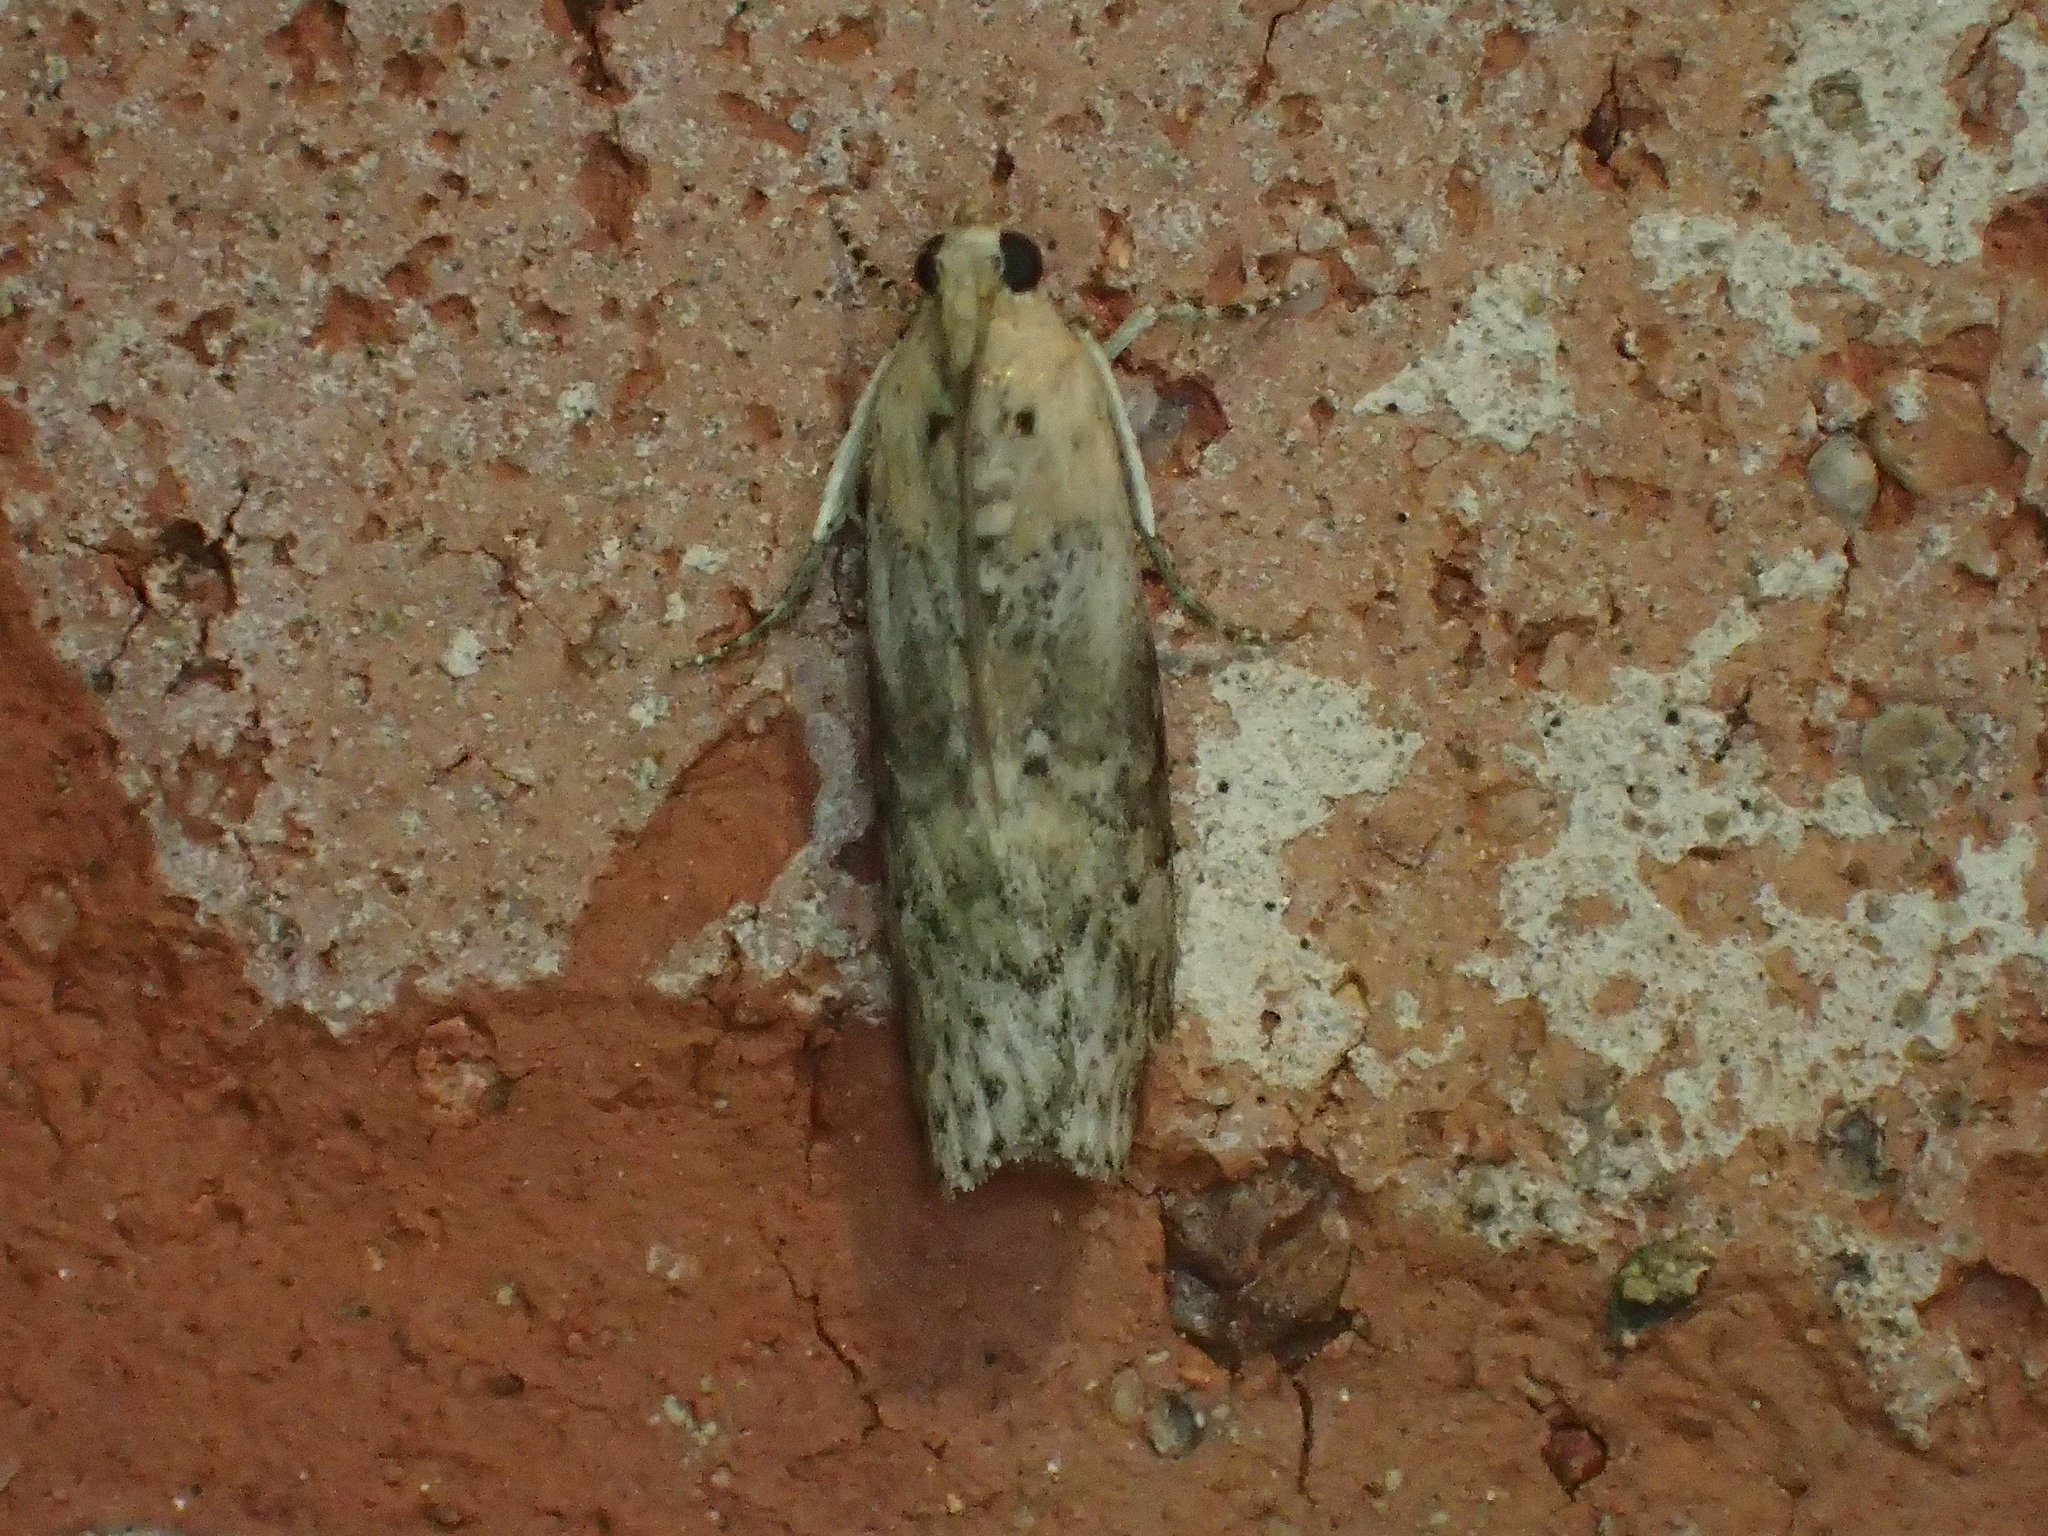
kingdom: Animalia
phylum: Arthropoda
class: Insecta
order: Lepidoptera
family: Pyralidae
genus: Sciota
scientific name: Sciota celtidella
